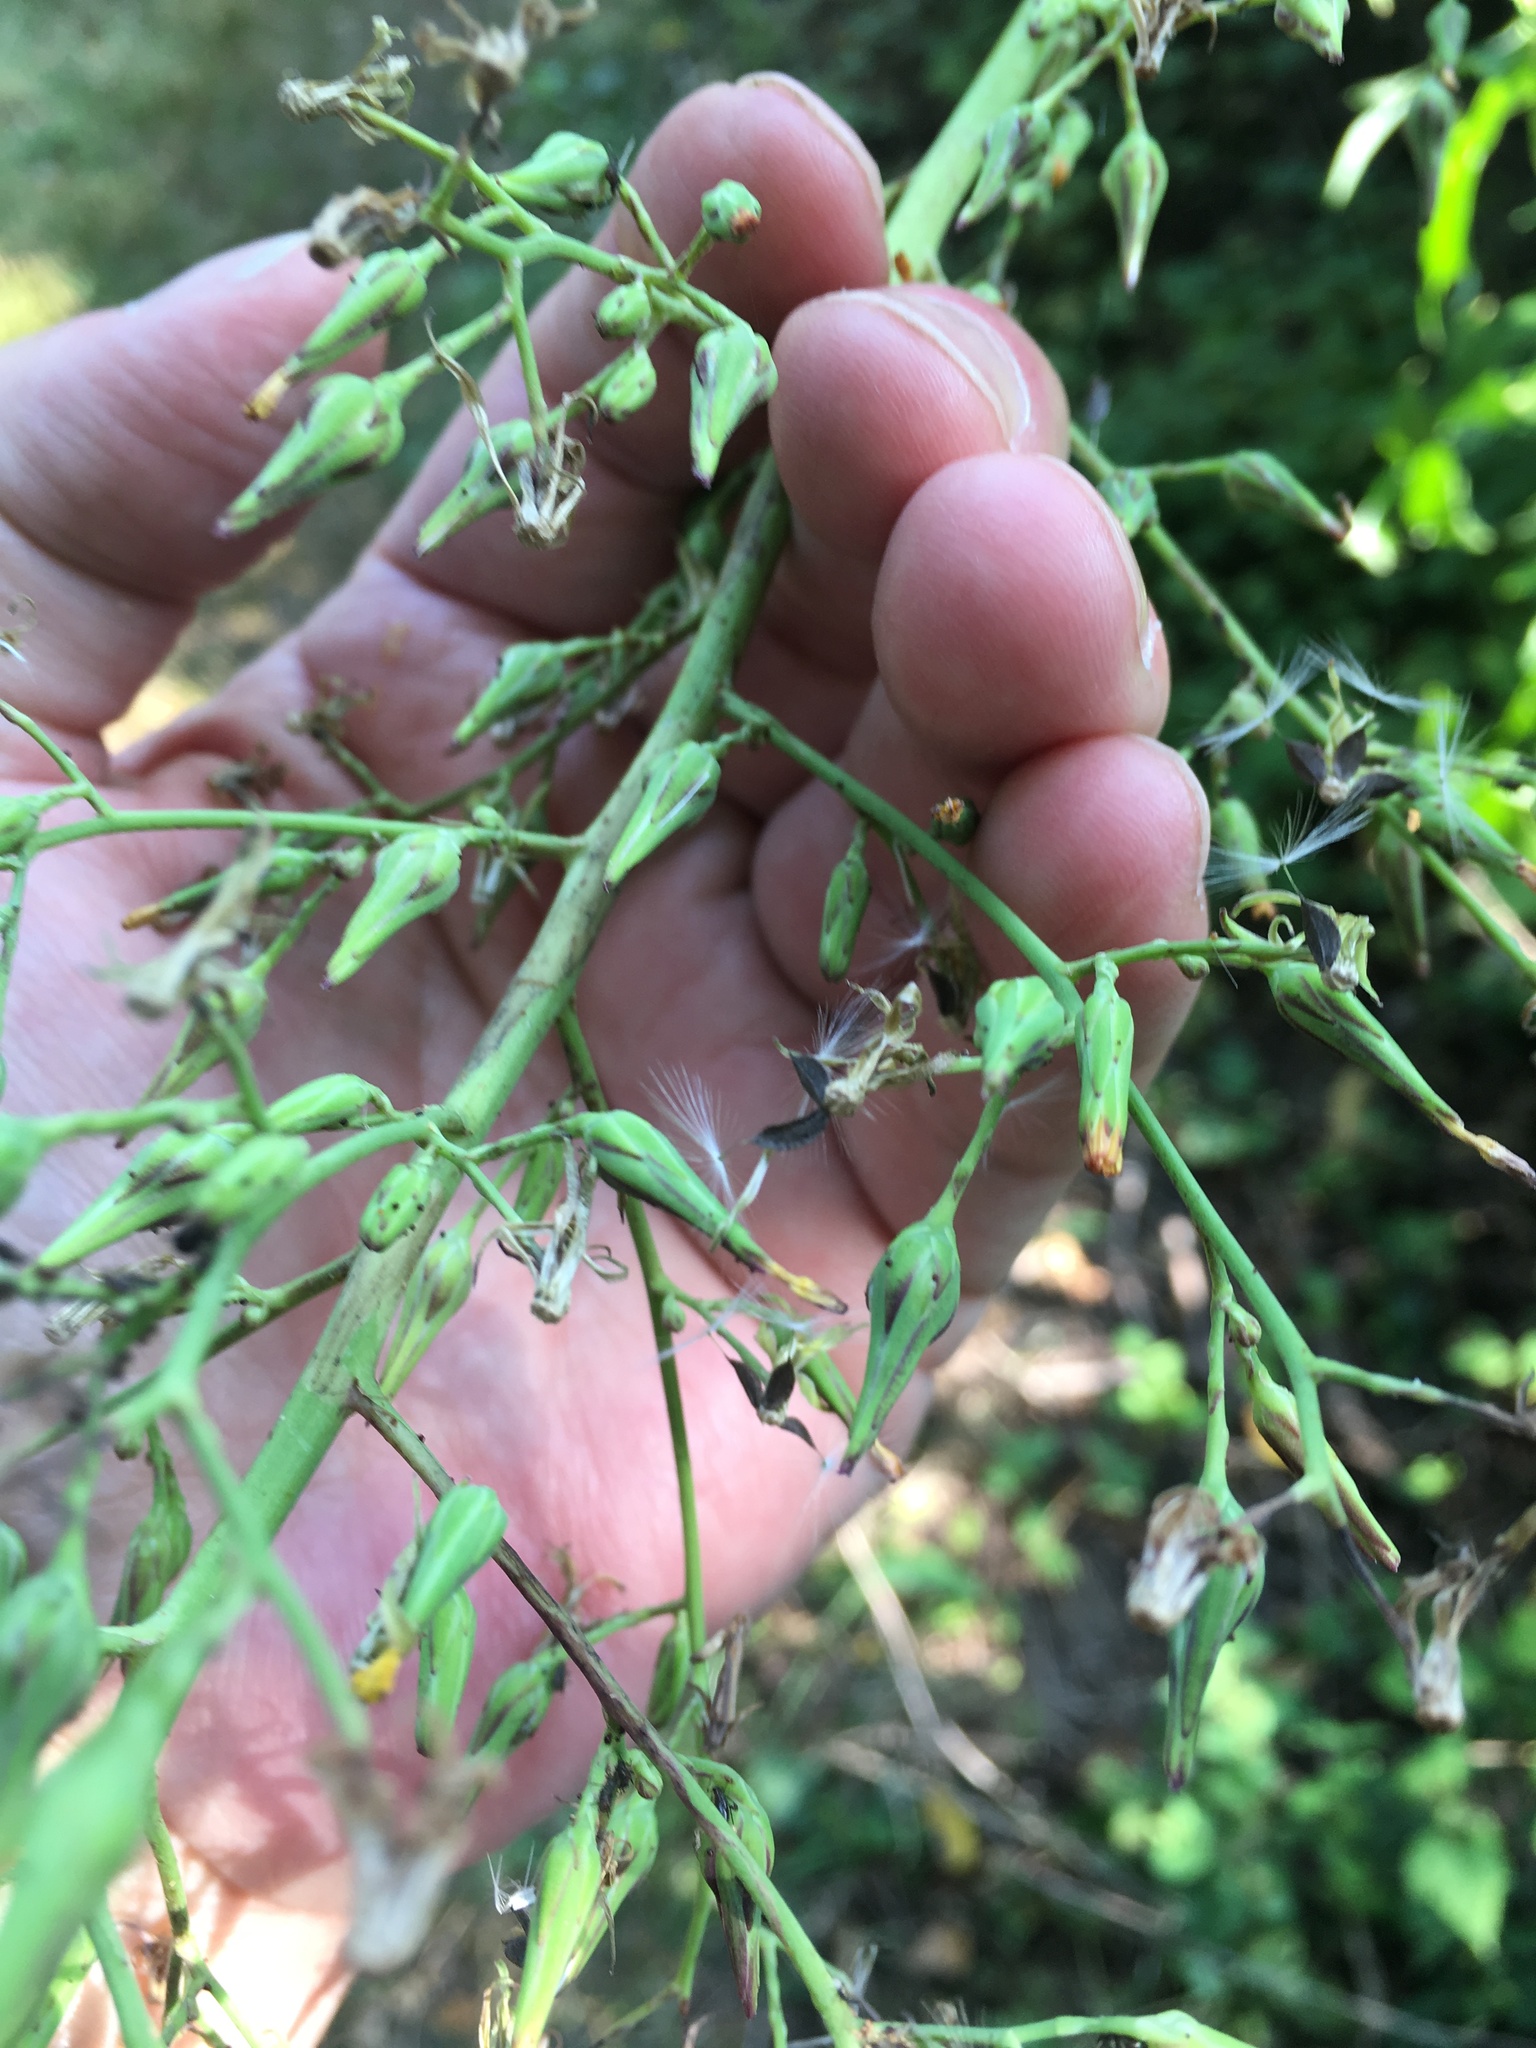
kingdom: Plantae
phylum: Tracheophyta
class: Magnoliopsida
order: Asterales
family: Asteraceae
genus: Lactuca
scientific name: Lactuca canadensis
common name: Canada lettuce
